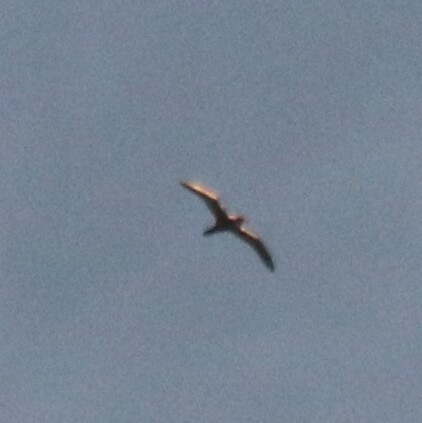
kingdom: Animalia
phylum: Chordata
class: Aves
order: Procellariiformes
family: Procellariidae
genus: Pterodroma
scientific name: Pterodroma baraui
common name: Barau's petrel
